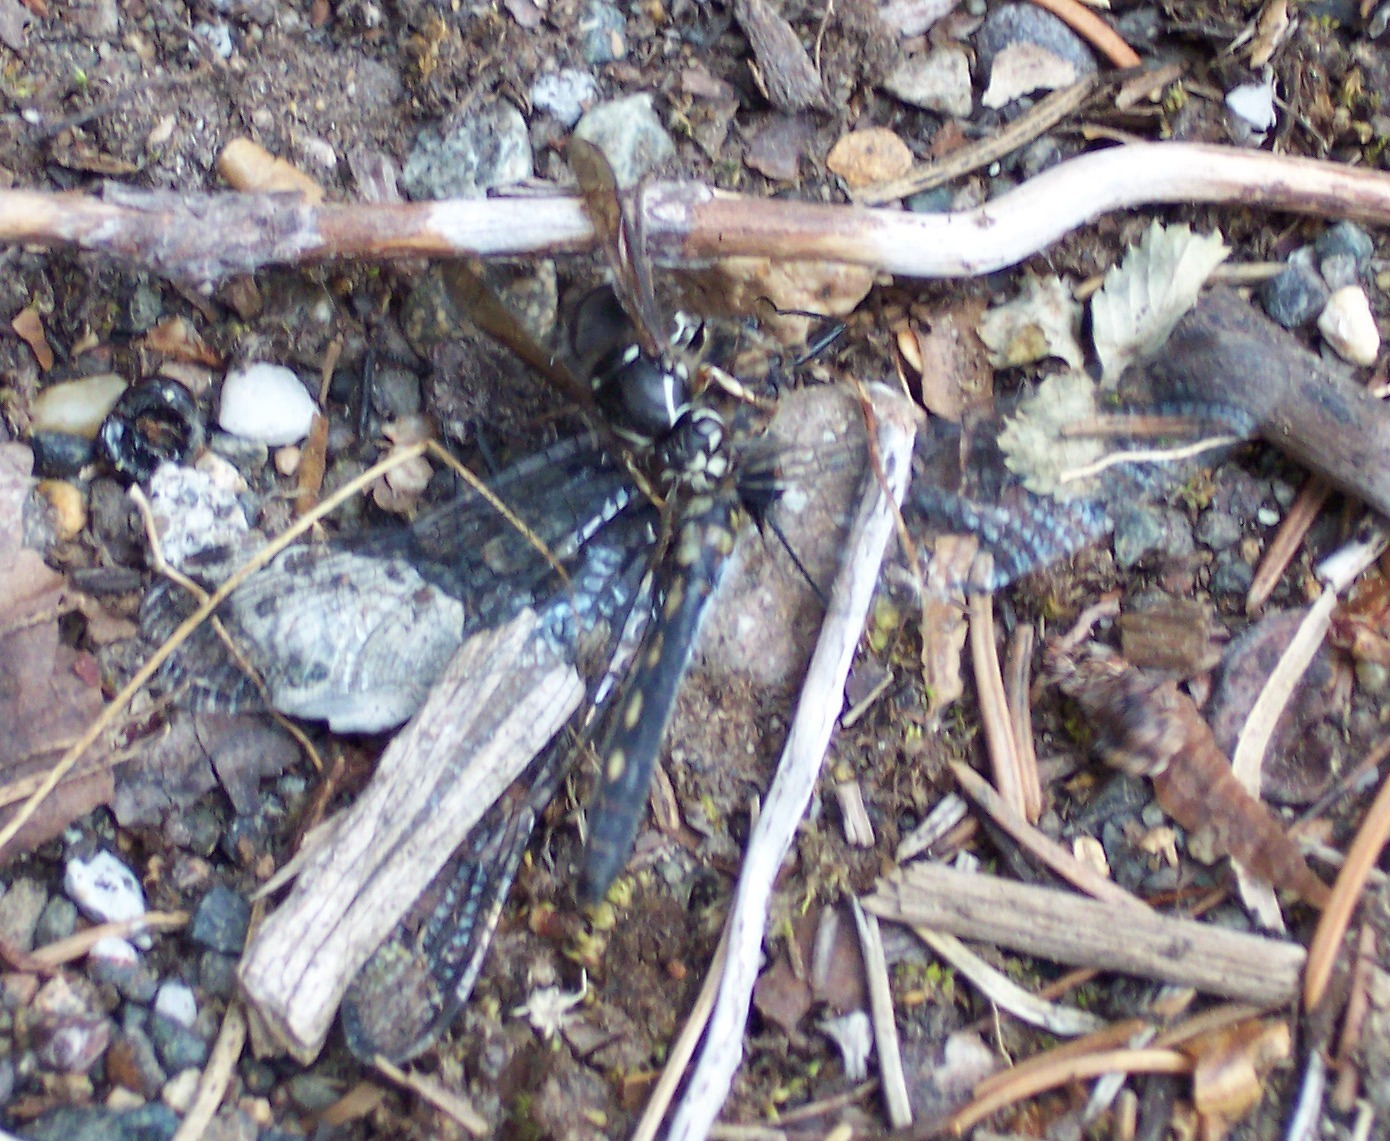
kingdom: Animalia
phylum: Arthropoda
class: Insecta
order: Hymenoptera
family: Vespidae
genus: Dolichovespula
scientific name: Dolichovespula maculata
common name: Bald-faced hornet
